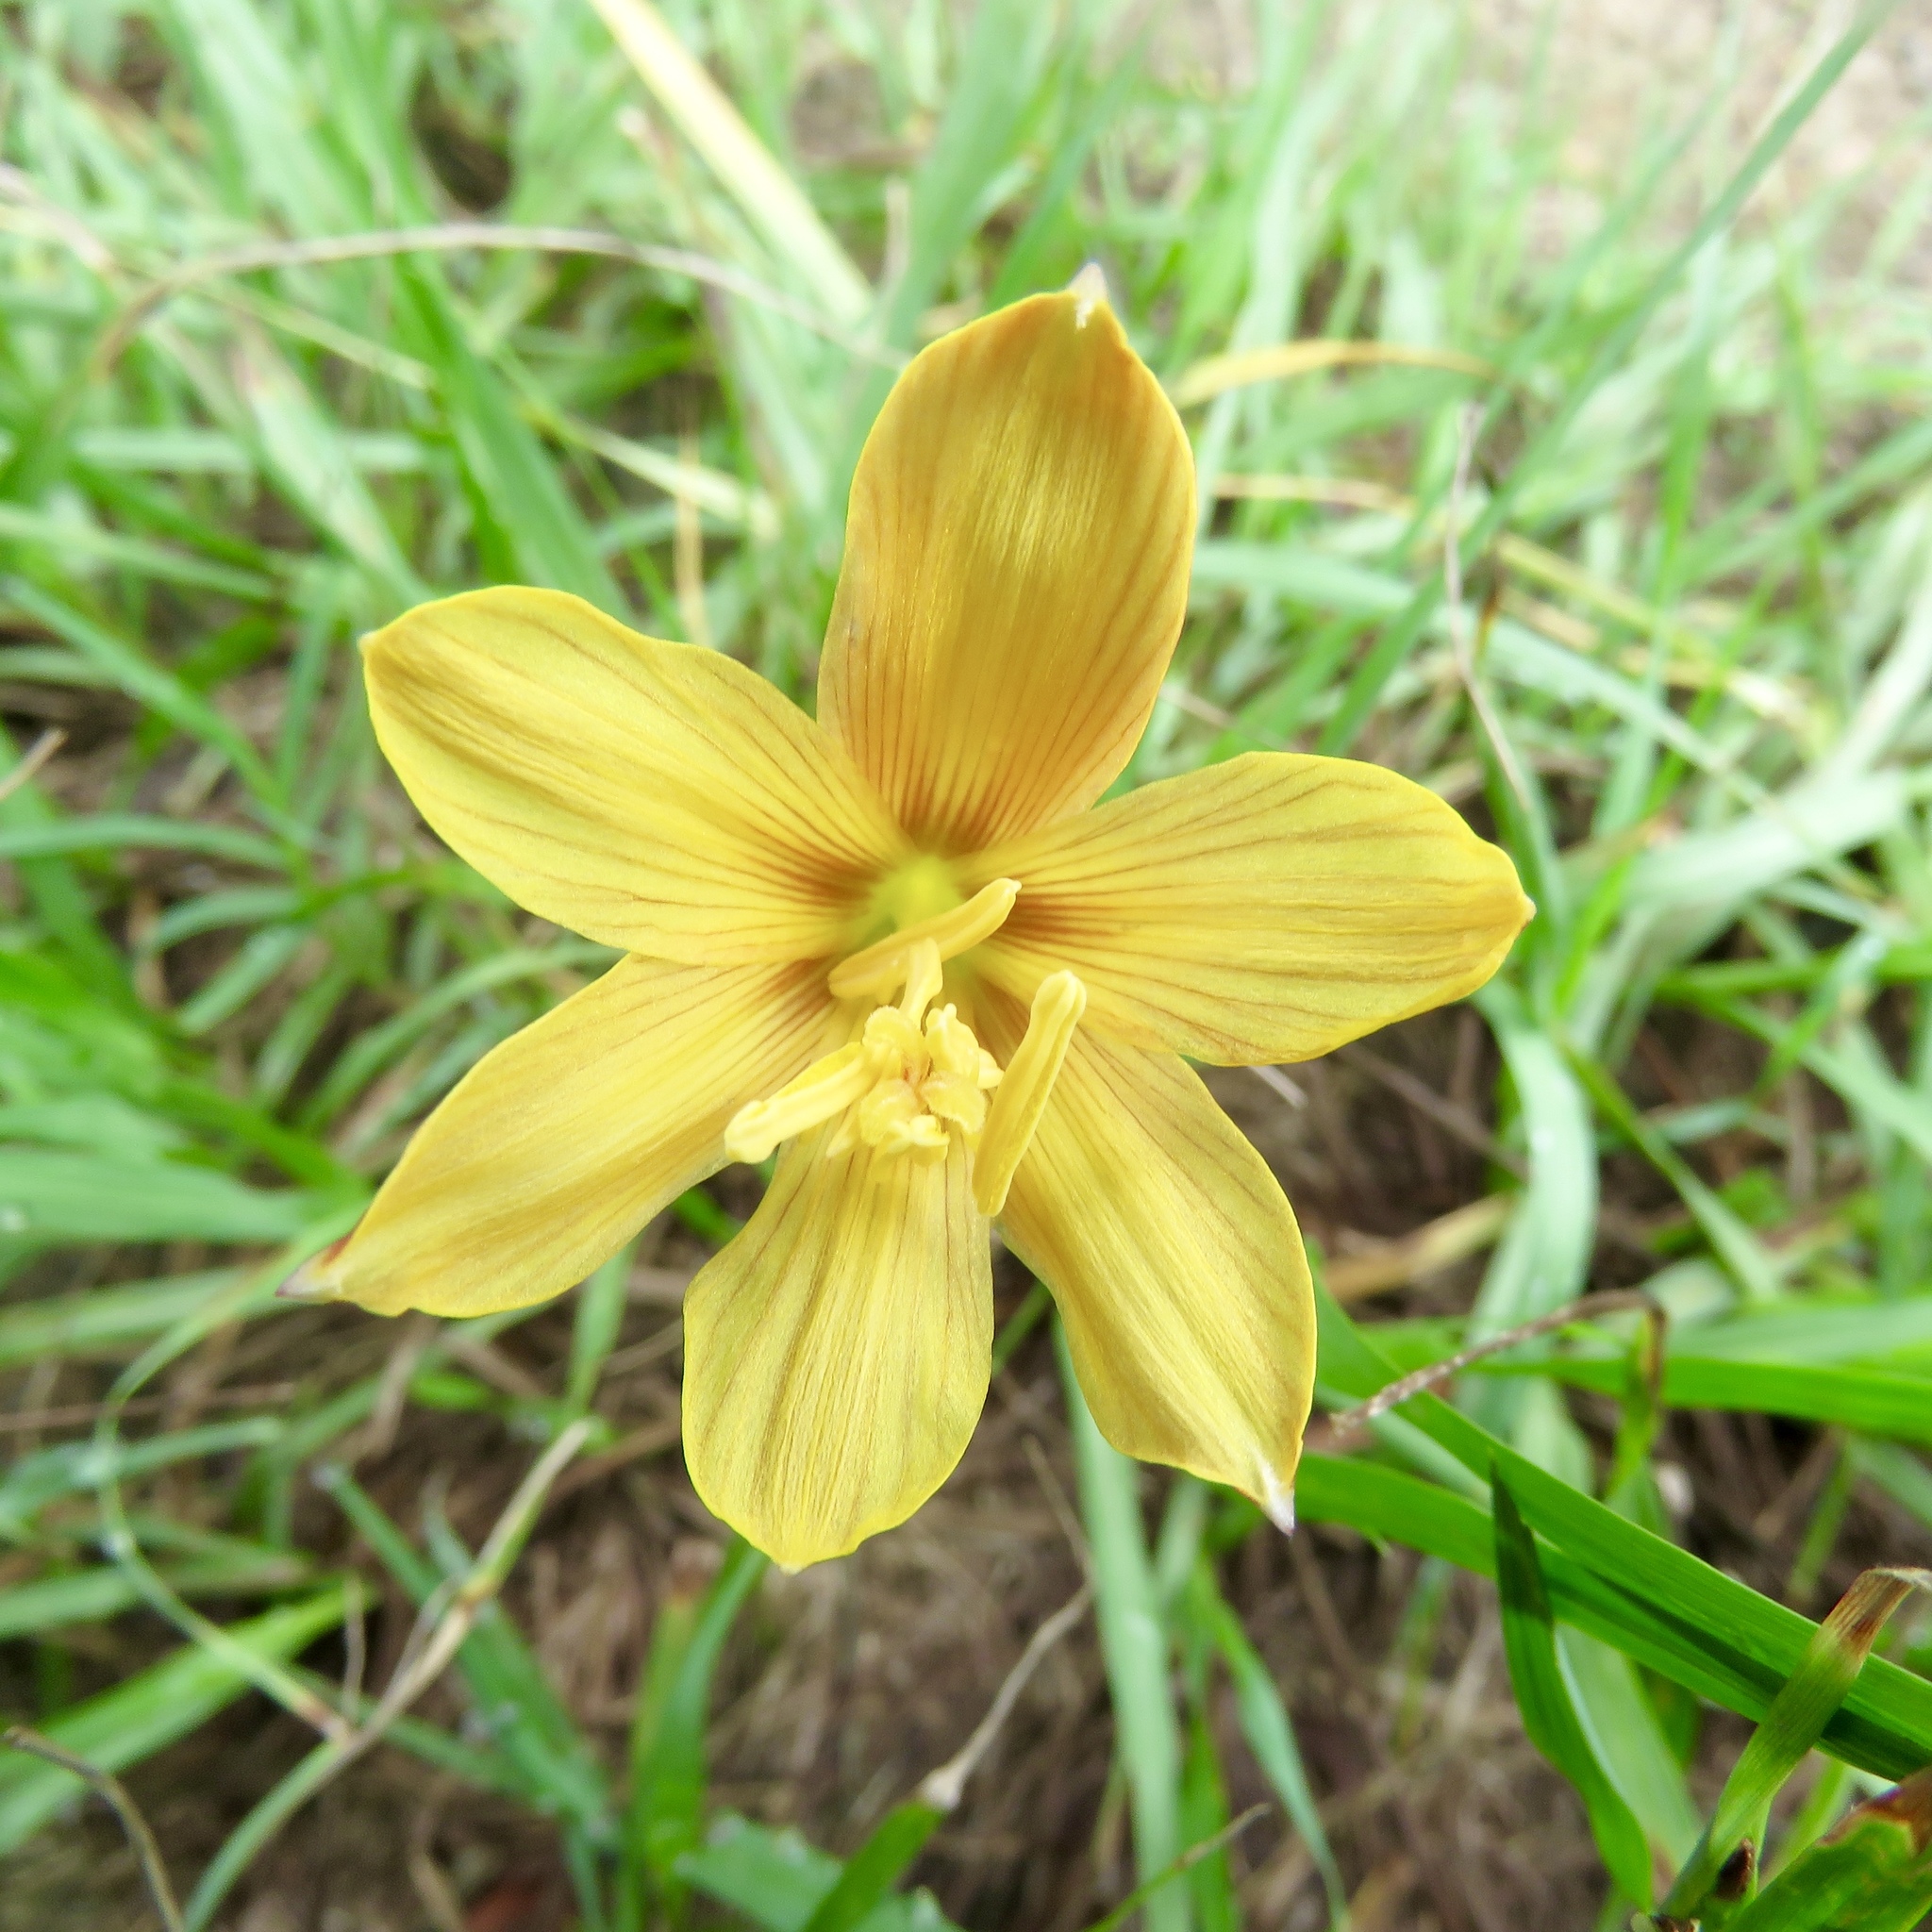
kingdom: Plantae
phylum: Tracheophyta
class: Liliopsida
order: Asparagales
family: Amaryllidaceae
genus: Zephyranthes
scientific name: Zephyranthes tubispatha
